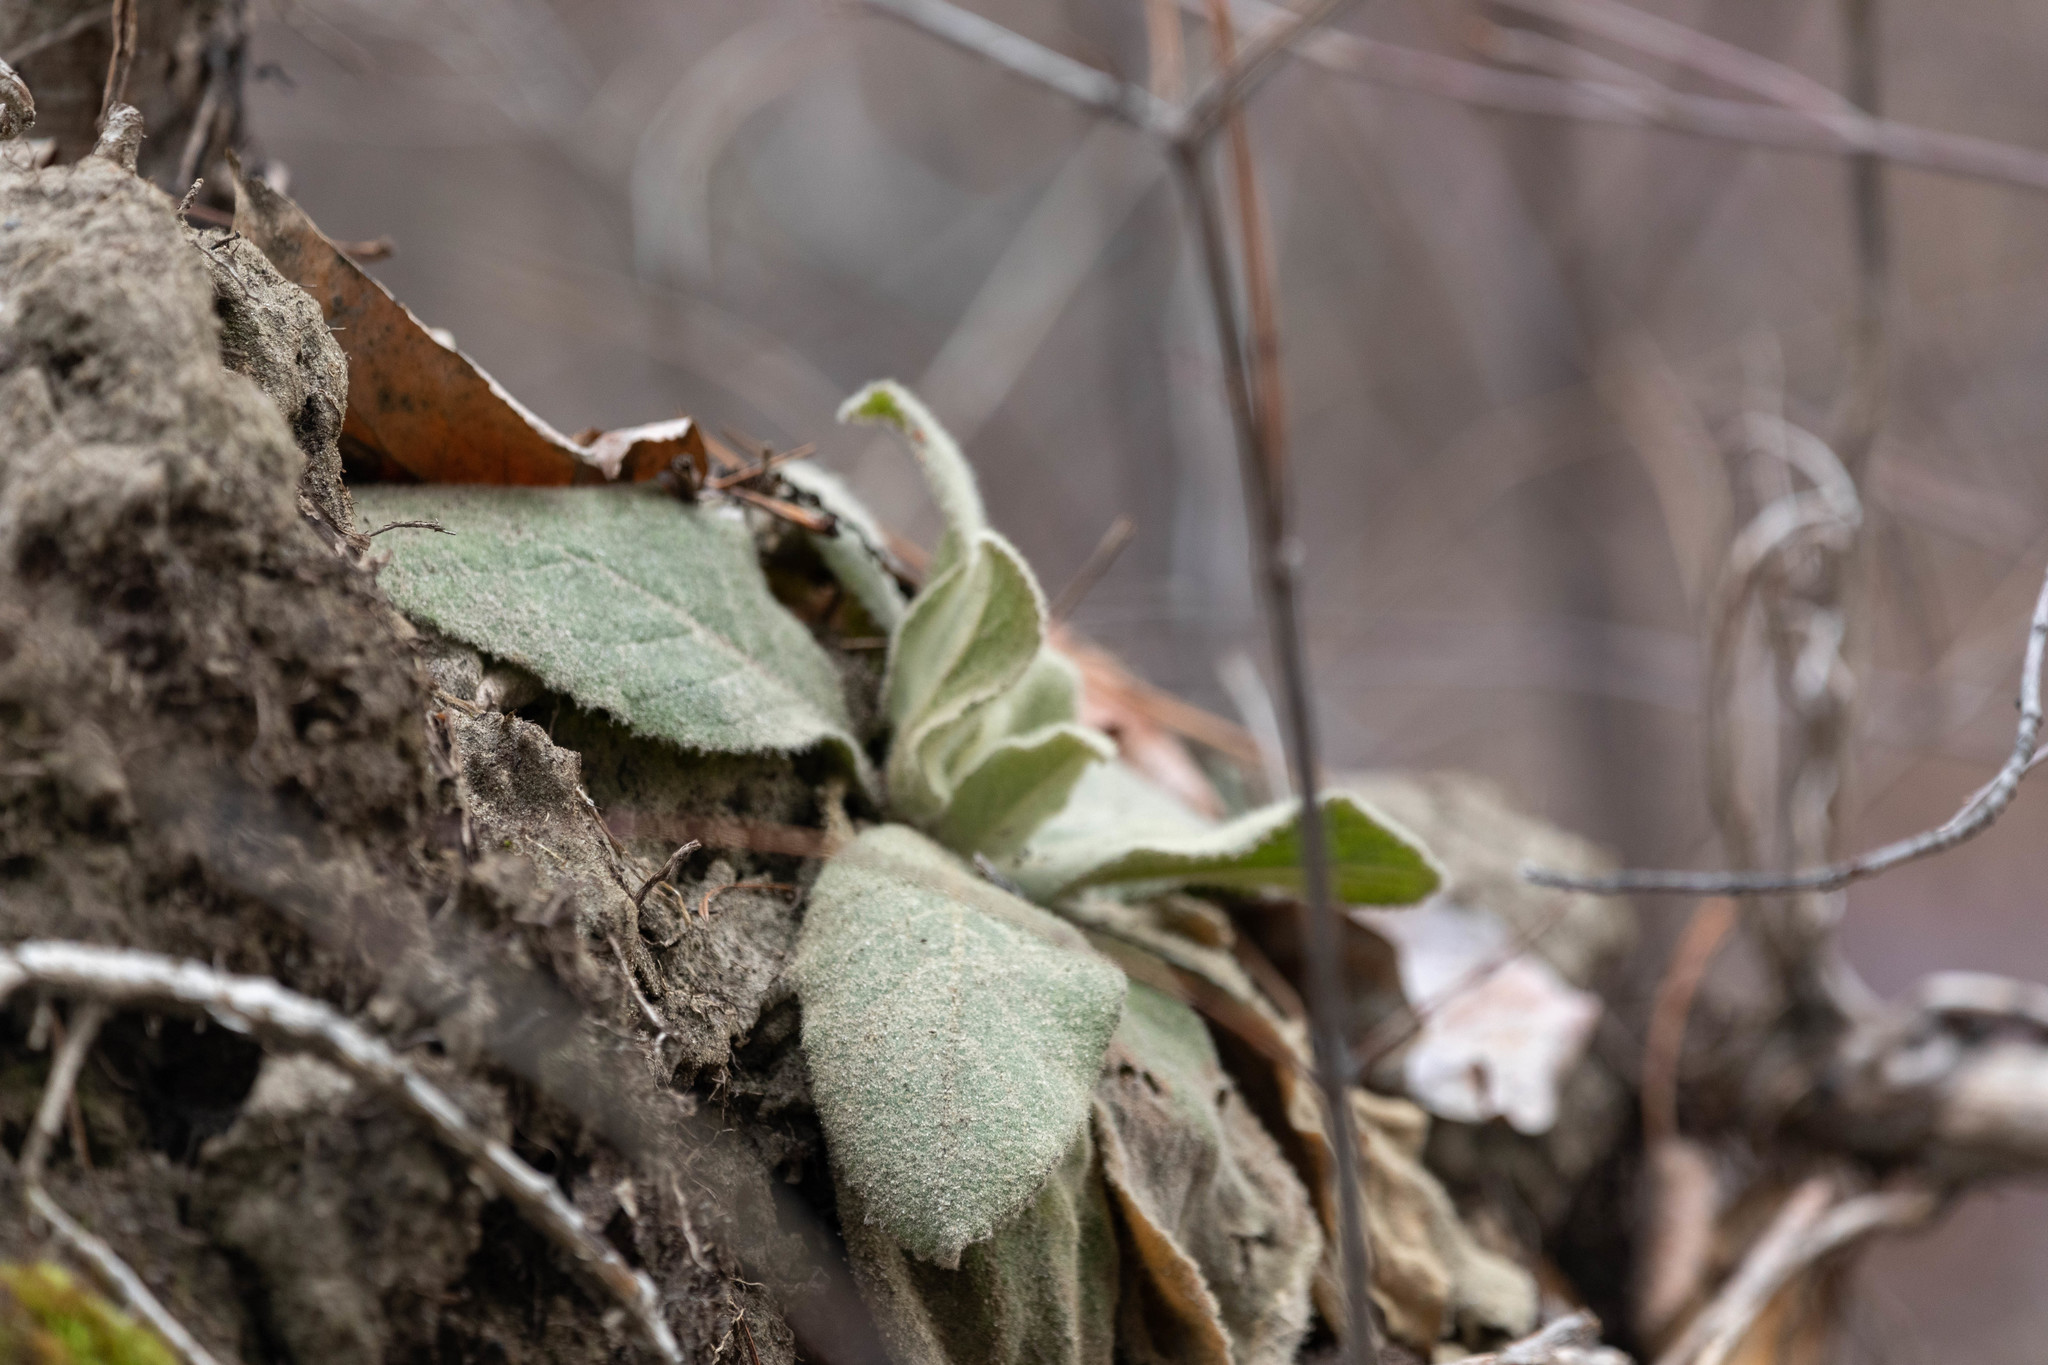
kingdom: Plantae
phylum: Tracheophyta
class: Magnoliopsida
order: Lamiales
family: Scrophulariaceae
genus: Verbascum
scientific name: Verbascum thapsus
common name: Common mullein
